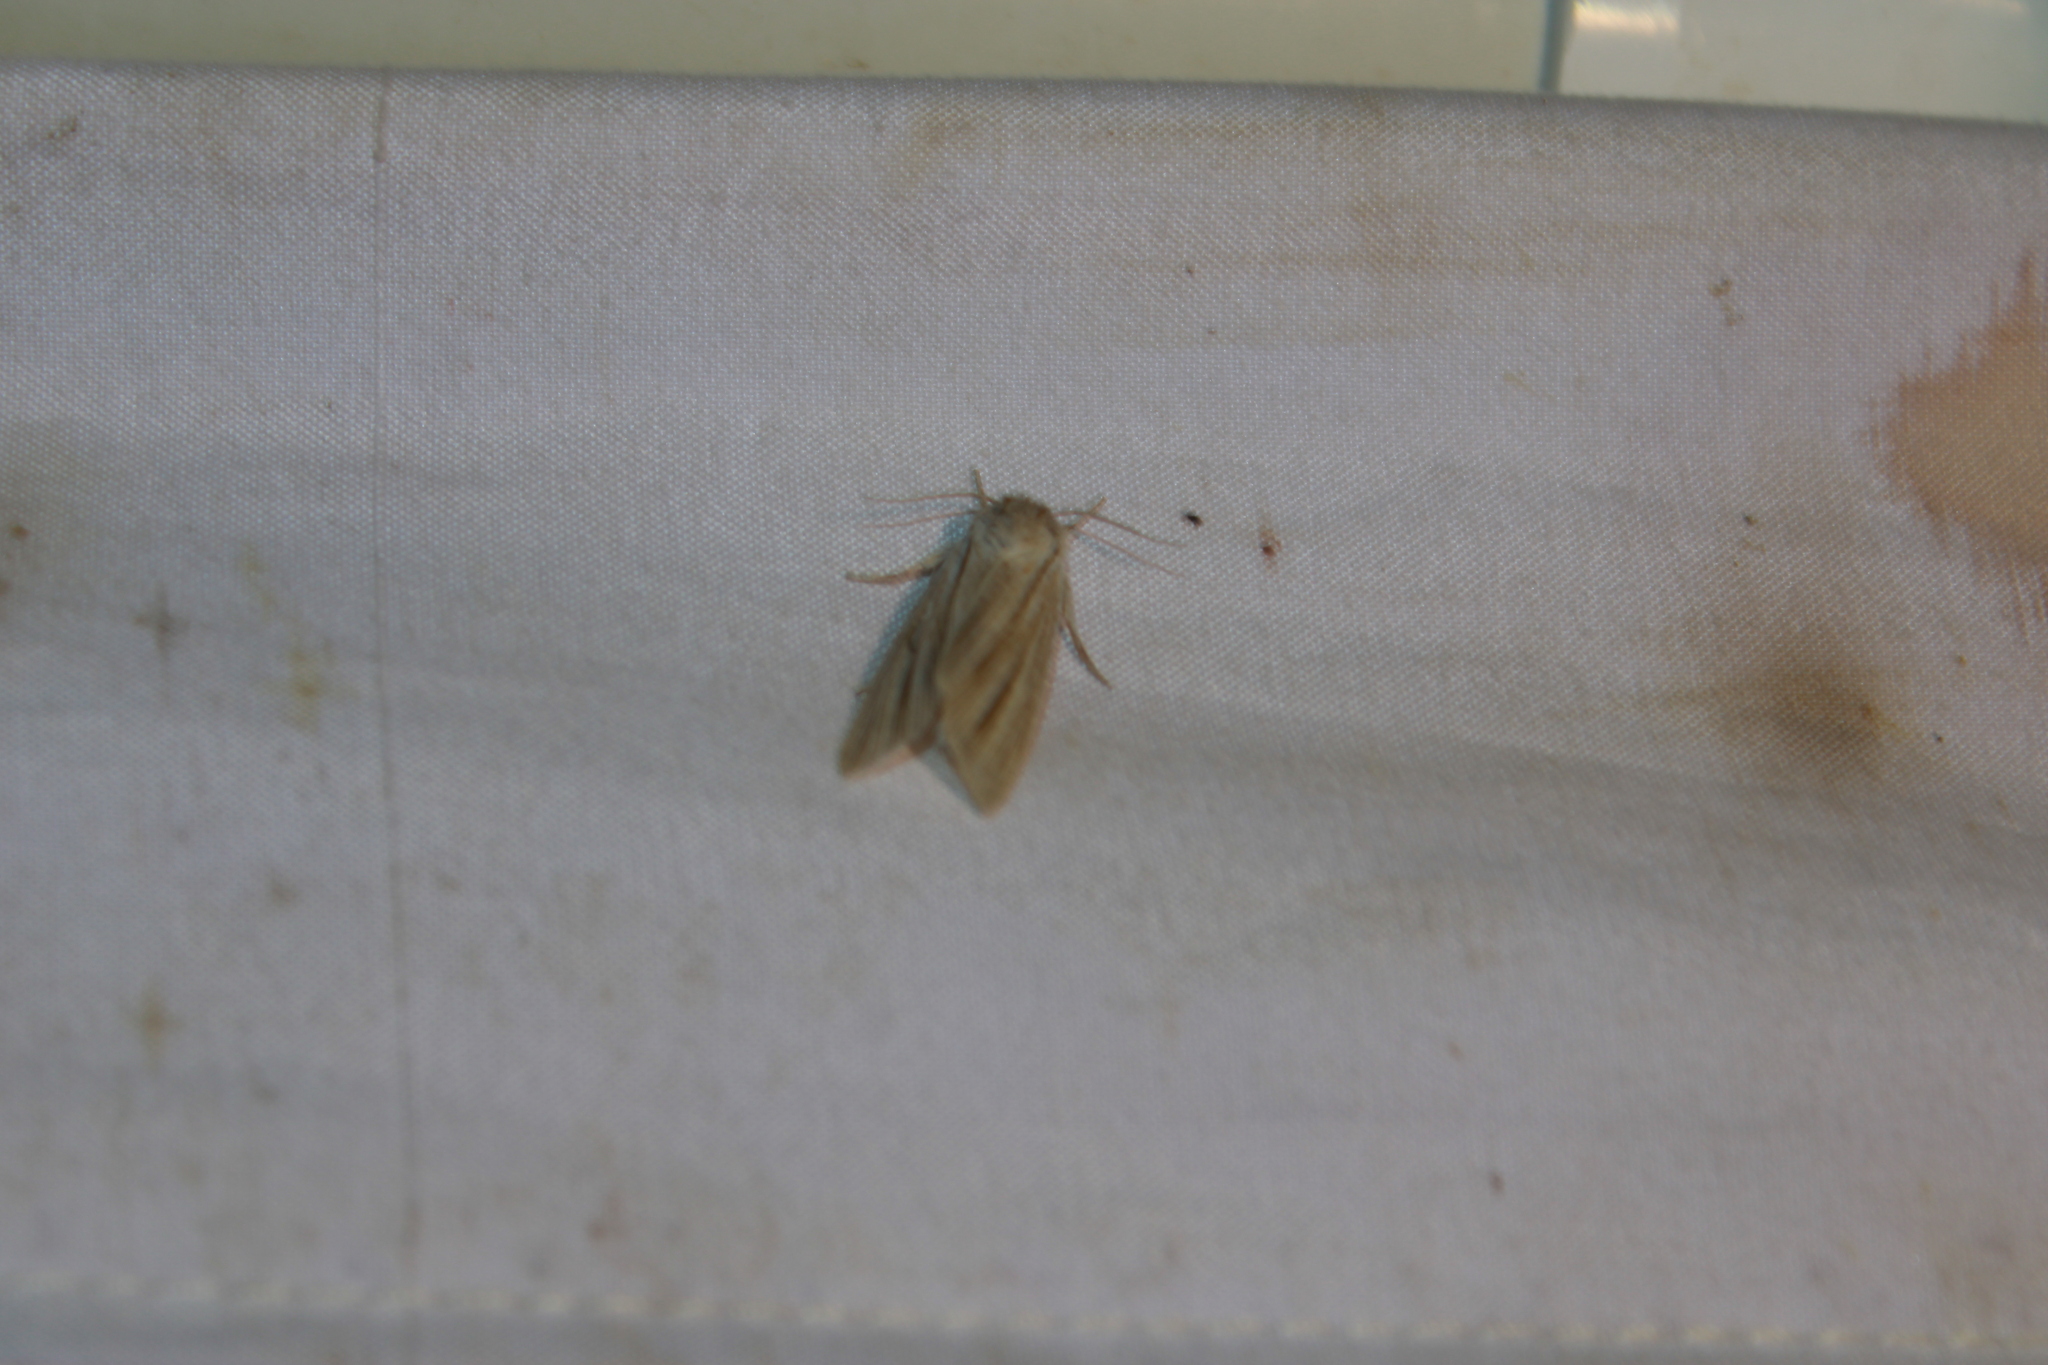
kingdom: Animalia
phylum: Arthropoda
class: Insecta
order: Lepidoptera
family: Noctuidae
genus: Acronicta
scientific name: Acronicta insularis
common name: Henry's marsh moth
